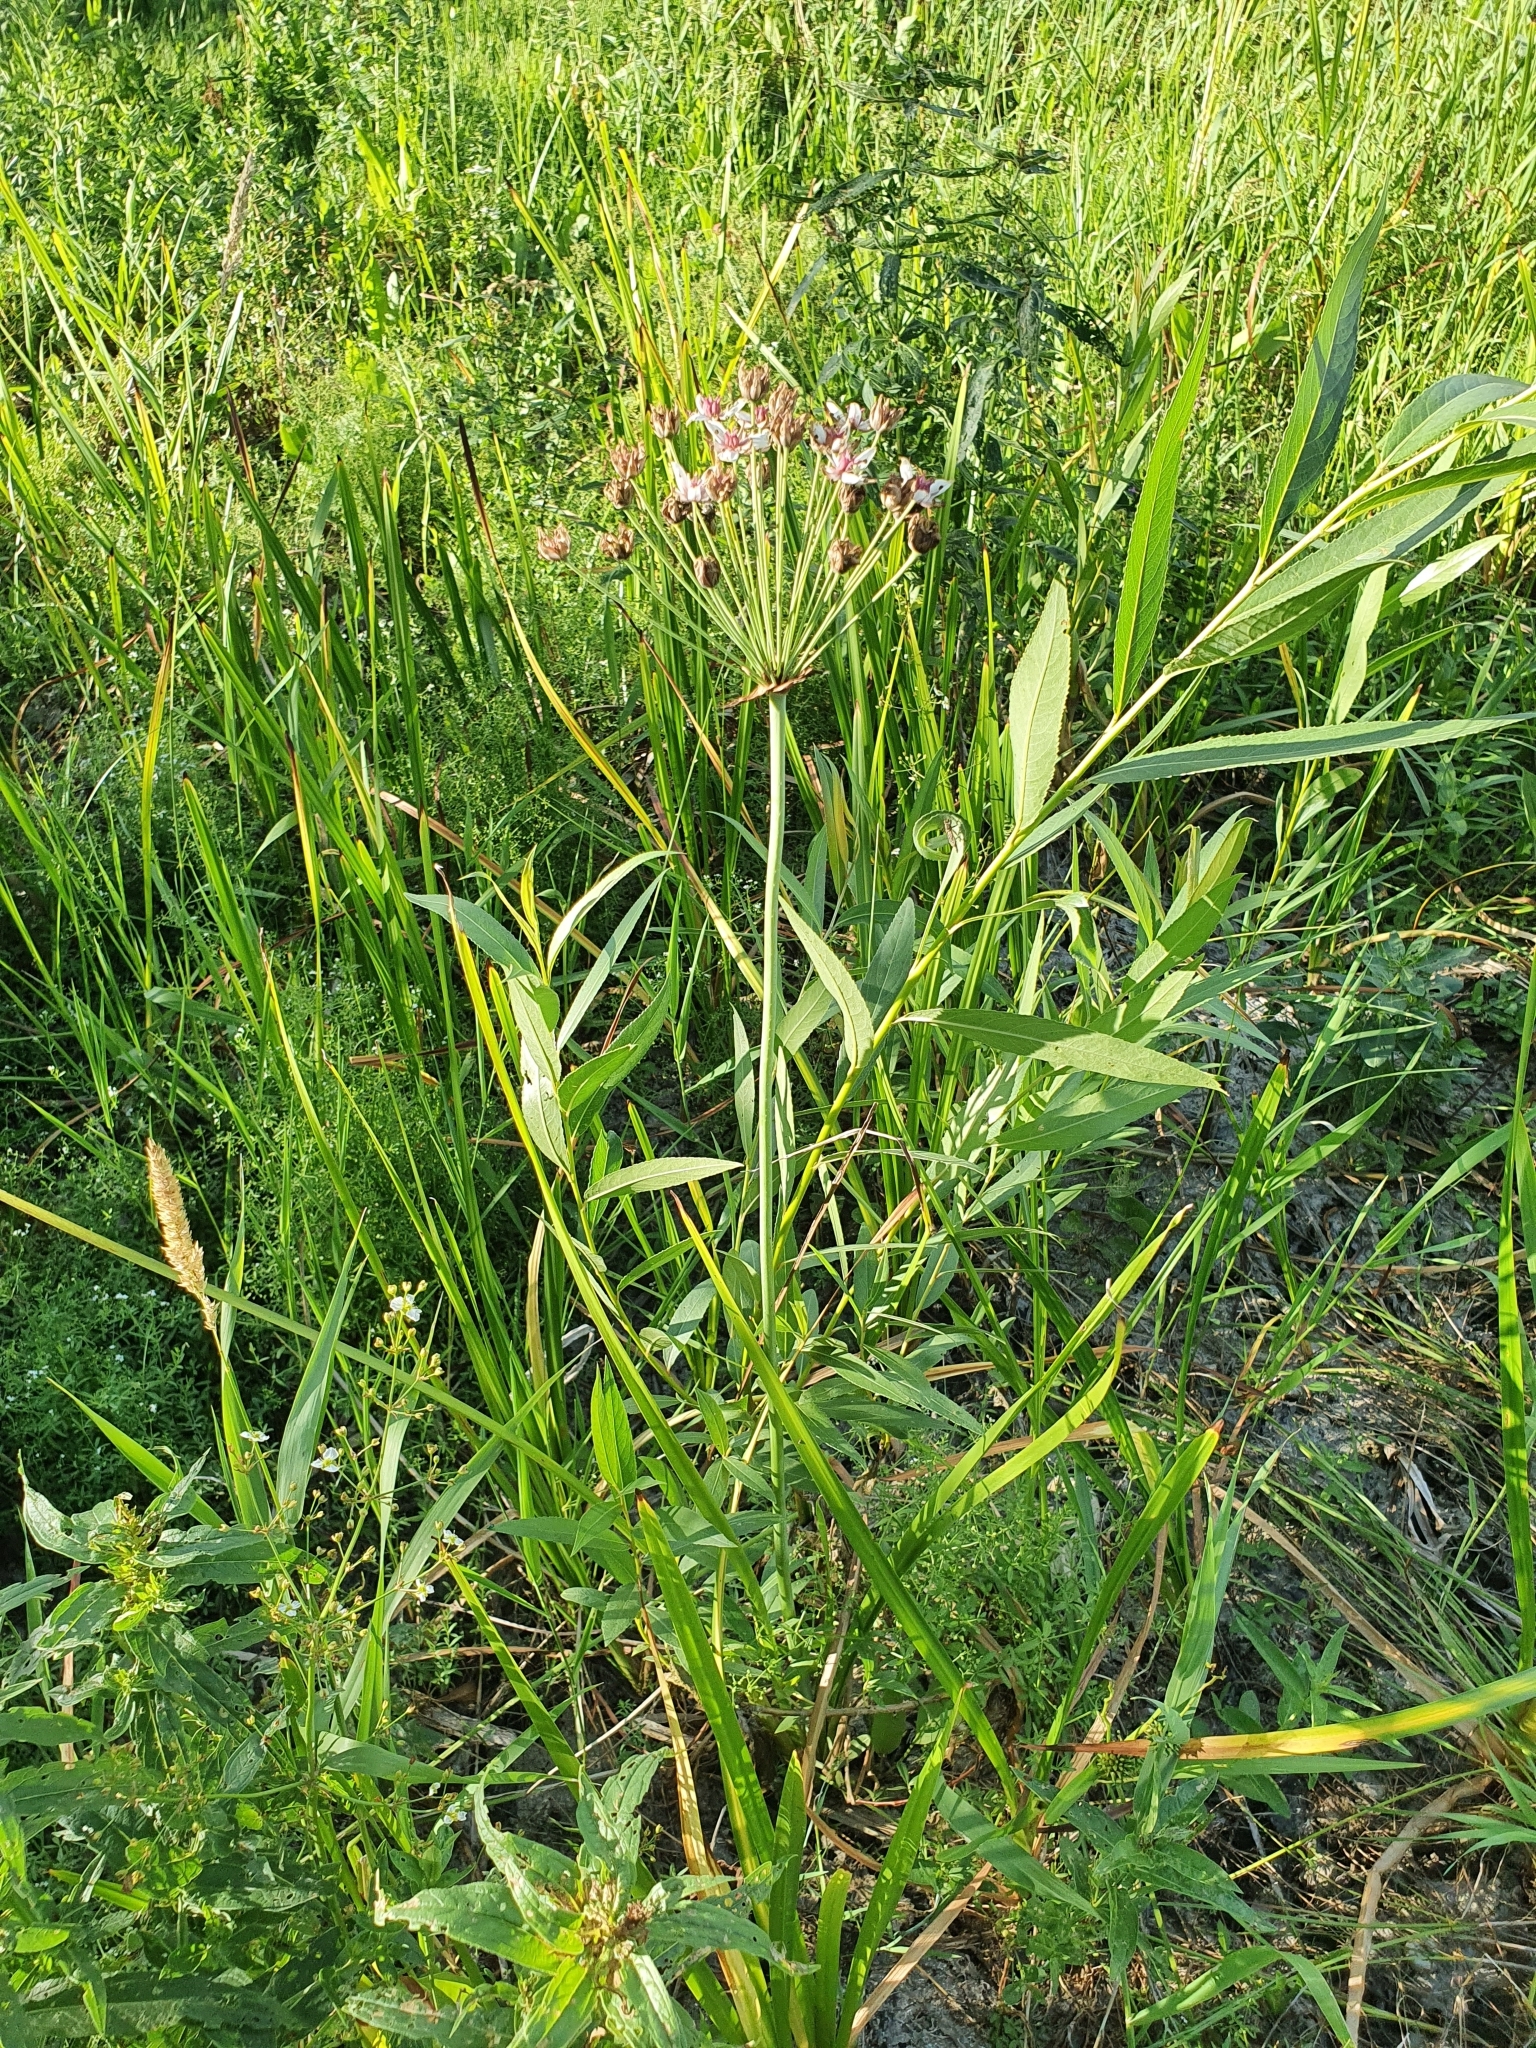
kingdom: Plantae
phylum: Tracheophyta
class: Liliopsida
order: Alismatales
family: Butomaceae
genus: Butomus
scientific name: Butomus umbellatus
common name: Flowering-rush
